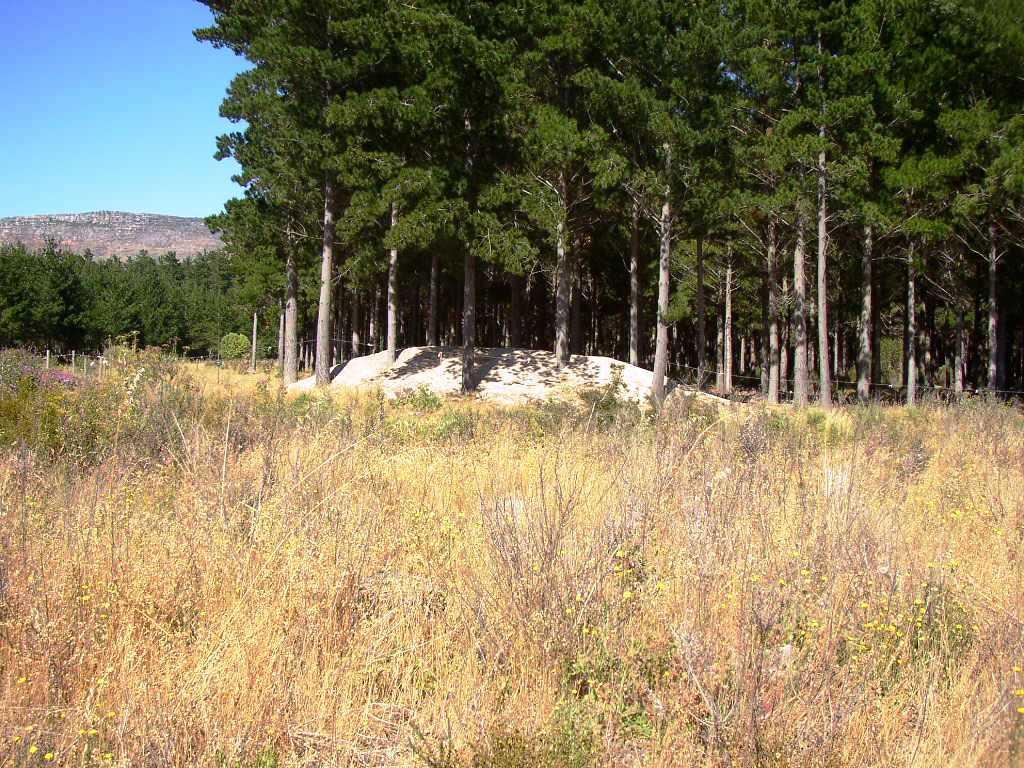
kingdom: Plantae
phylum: Tracheophyta
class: Magnoliopsida
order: Asterales
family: Asteraceae
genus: Senecio
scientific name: Senecio pterophorus
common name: Shoddy ragwort
